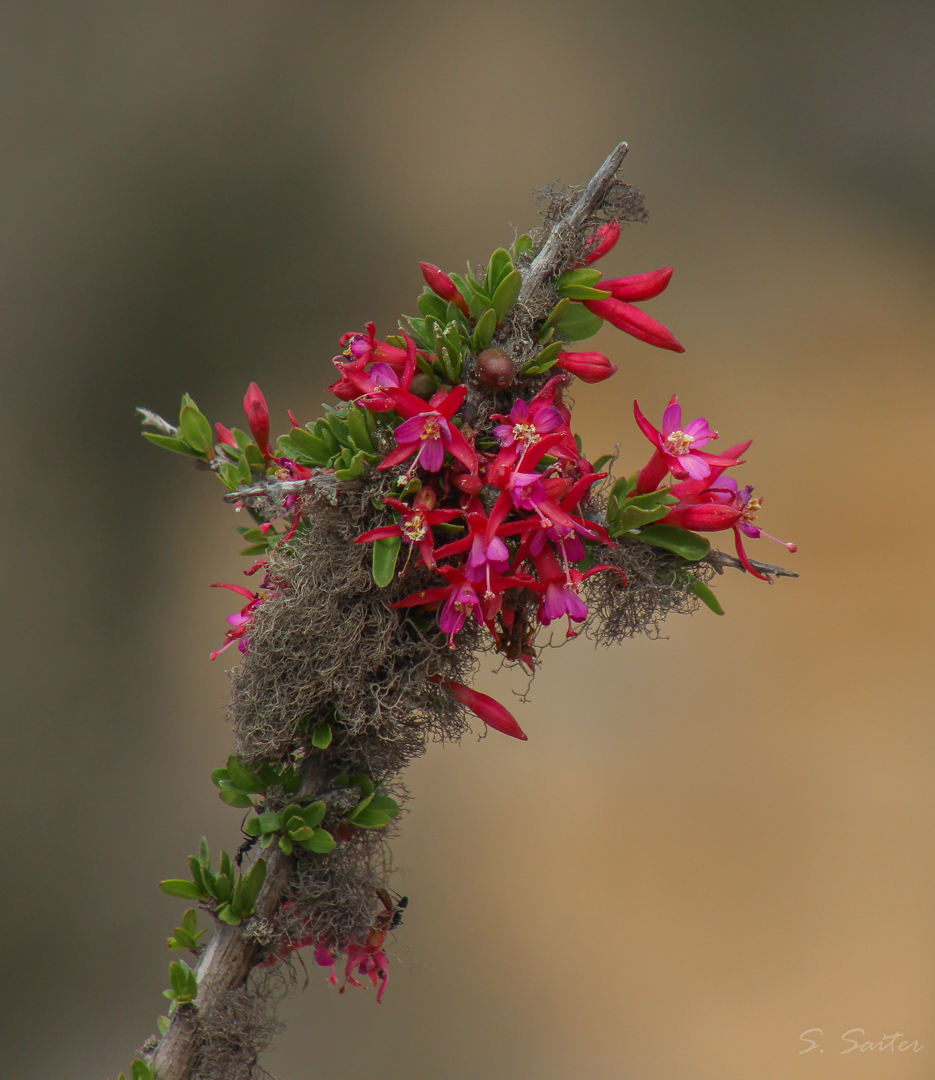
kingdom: Plantae
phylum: Tracheophyta
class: Magnoliopsida
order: Myrtales
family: Onagraceae
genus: Fuchsia
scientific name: Fuchsia lycioides
